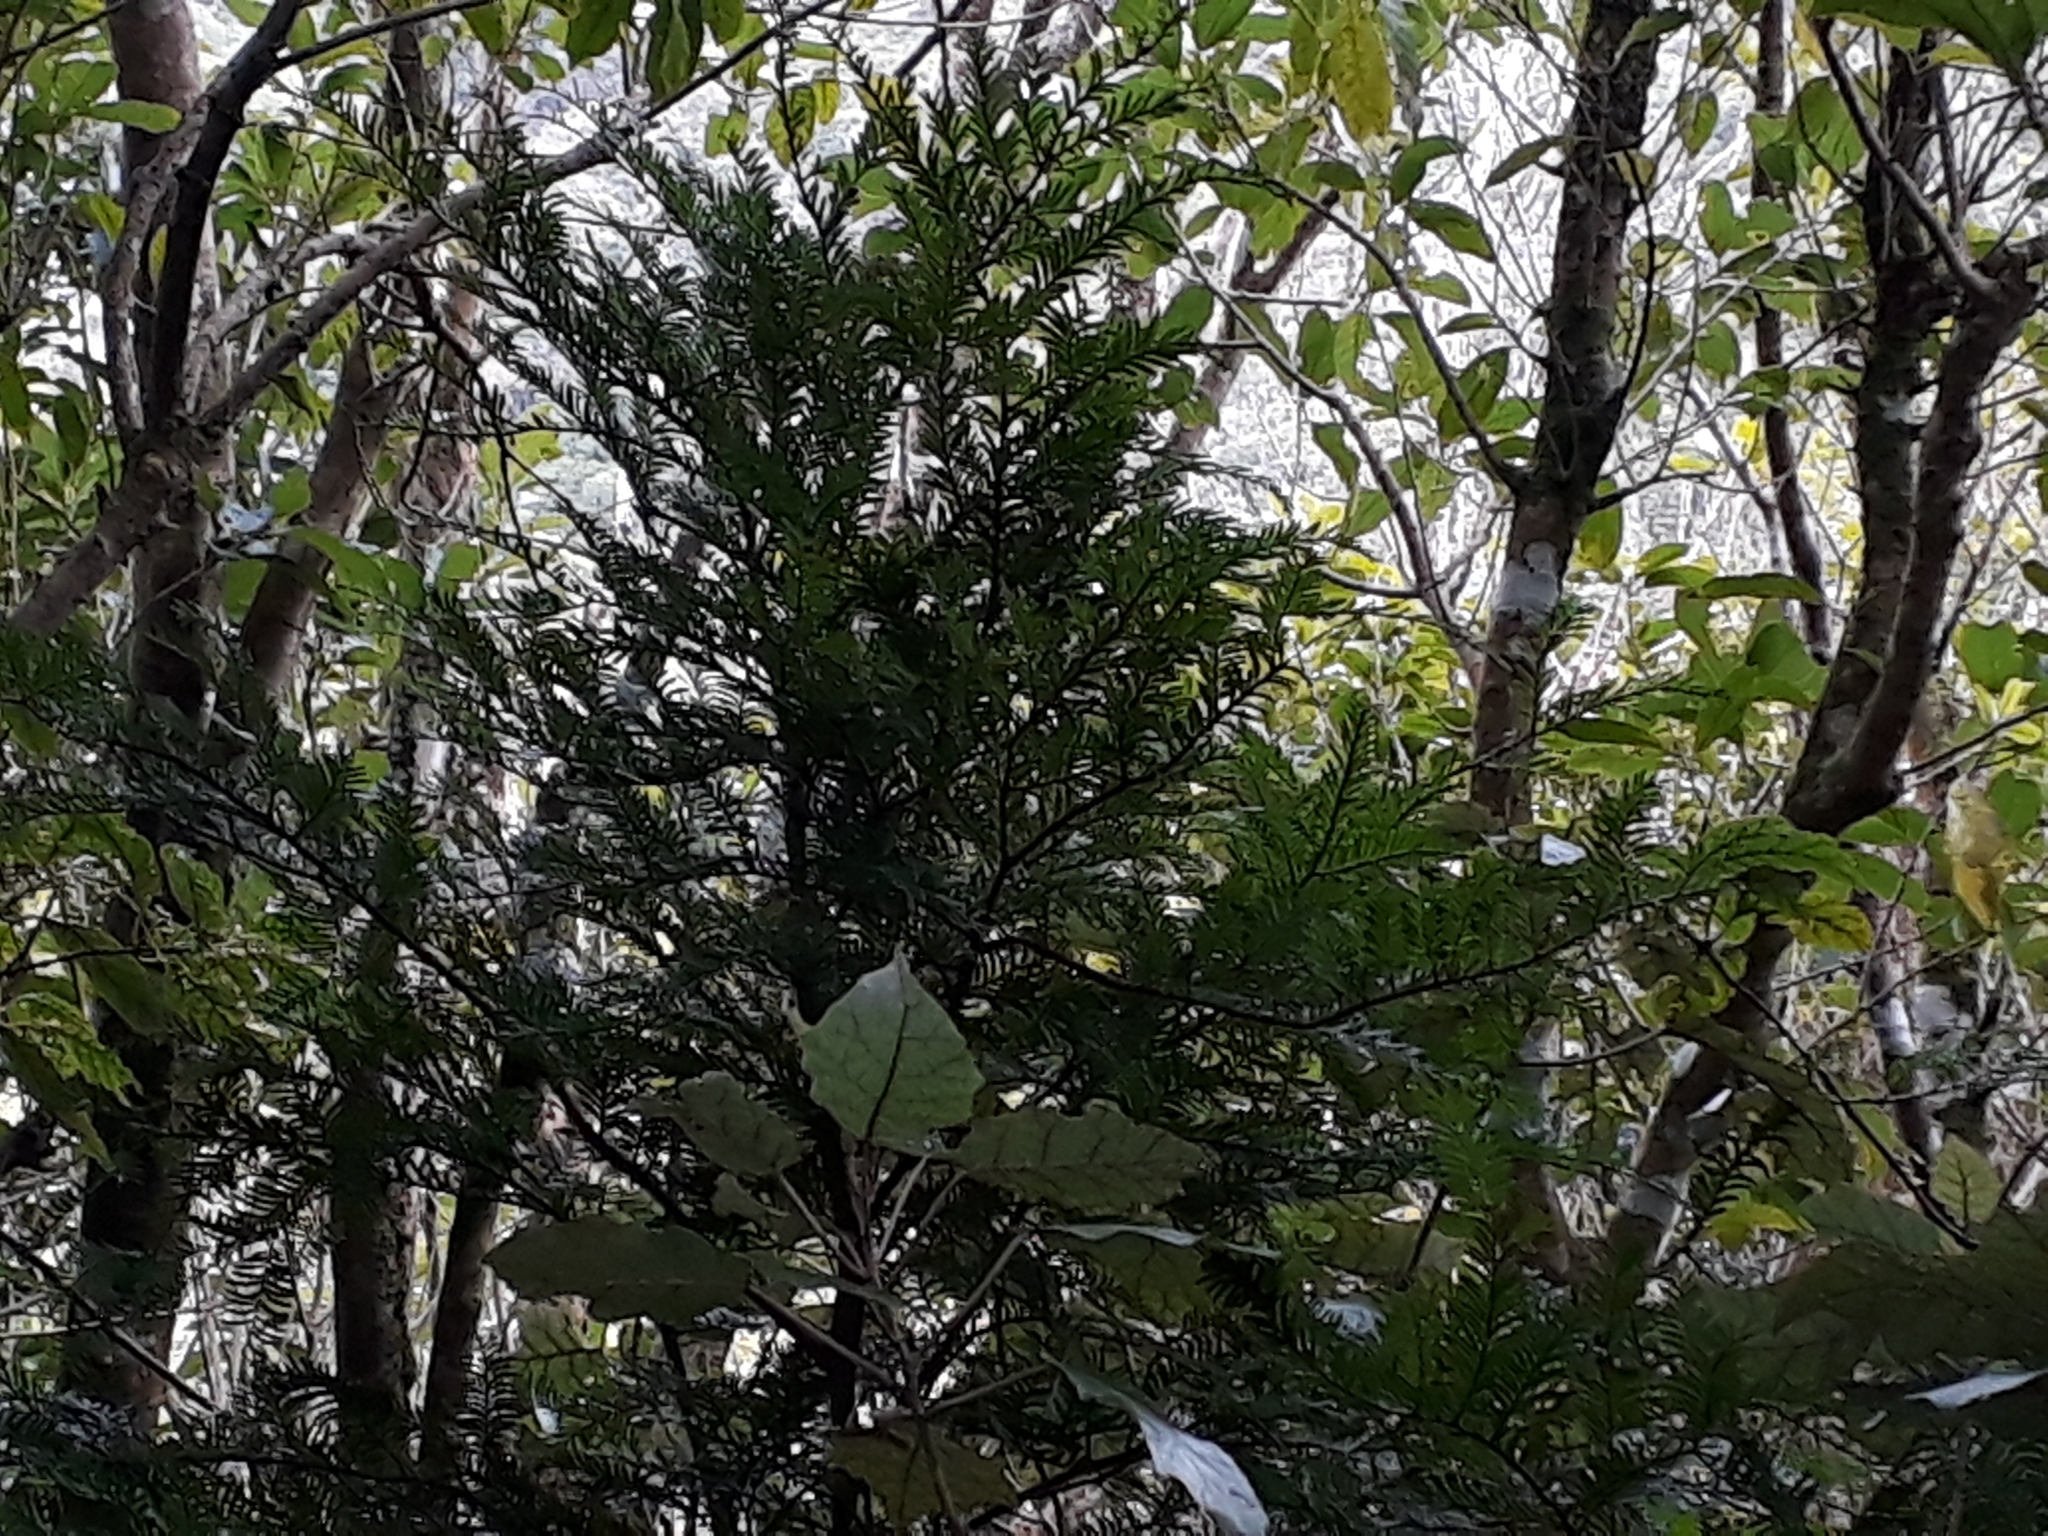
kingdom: Plantae
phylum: Tracheophyta
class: Pinopsida
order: Pinales
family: Podocarpaceae
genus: Prumnopitys
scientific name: Prumnopitys ferruginea
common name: Brown pine
